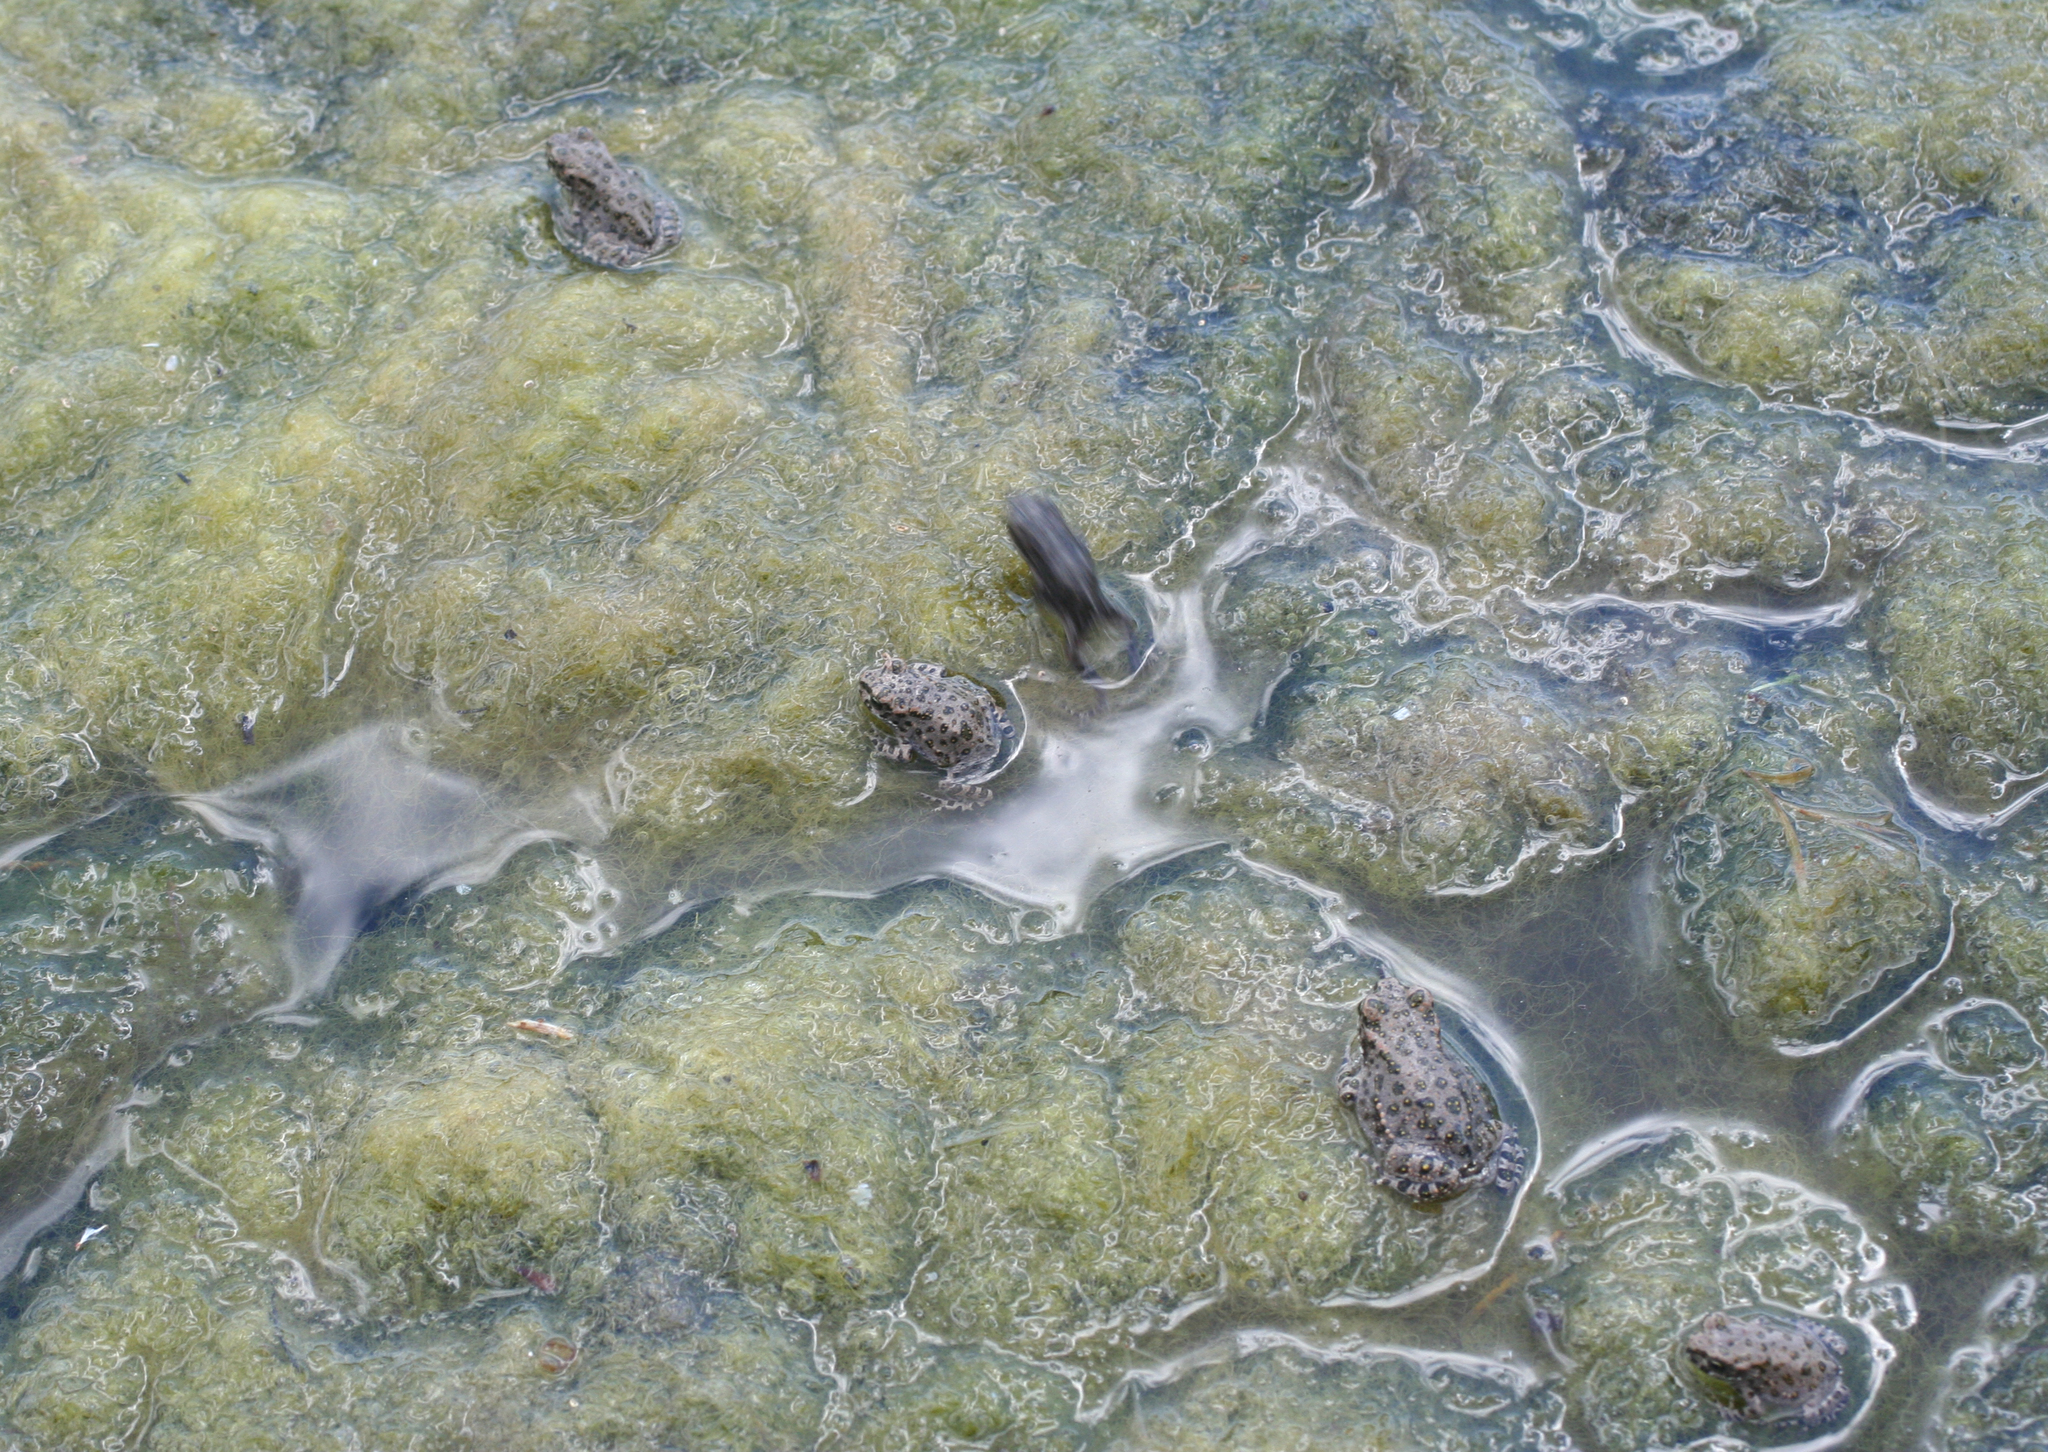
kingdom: Animalia
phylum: Chordata
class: Amphibia
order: Anura
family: Bufonidae
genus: Bufotes
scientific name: Bufotes viridis
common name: European green toad
